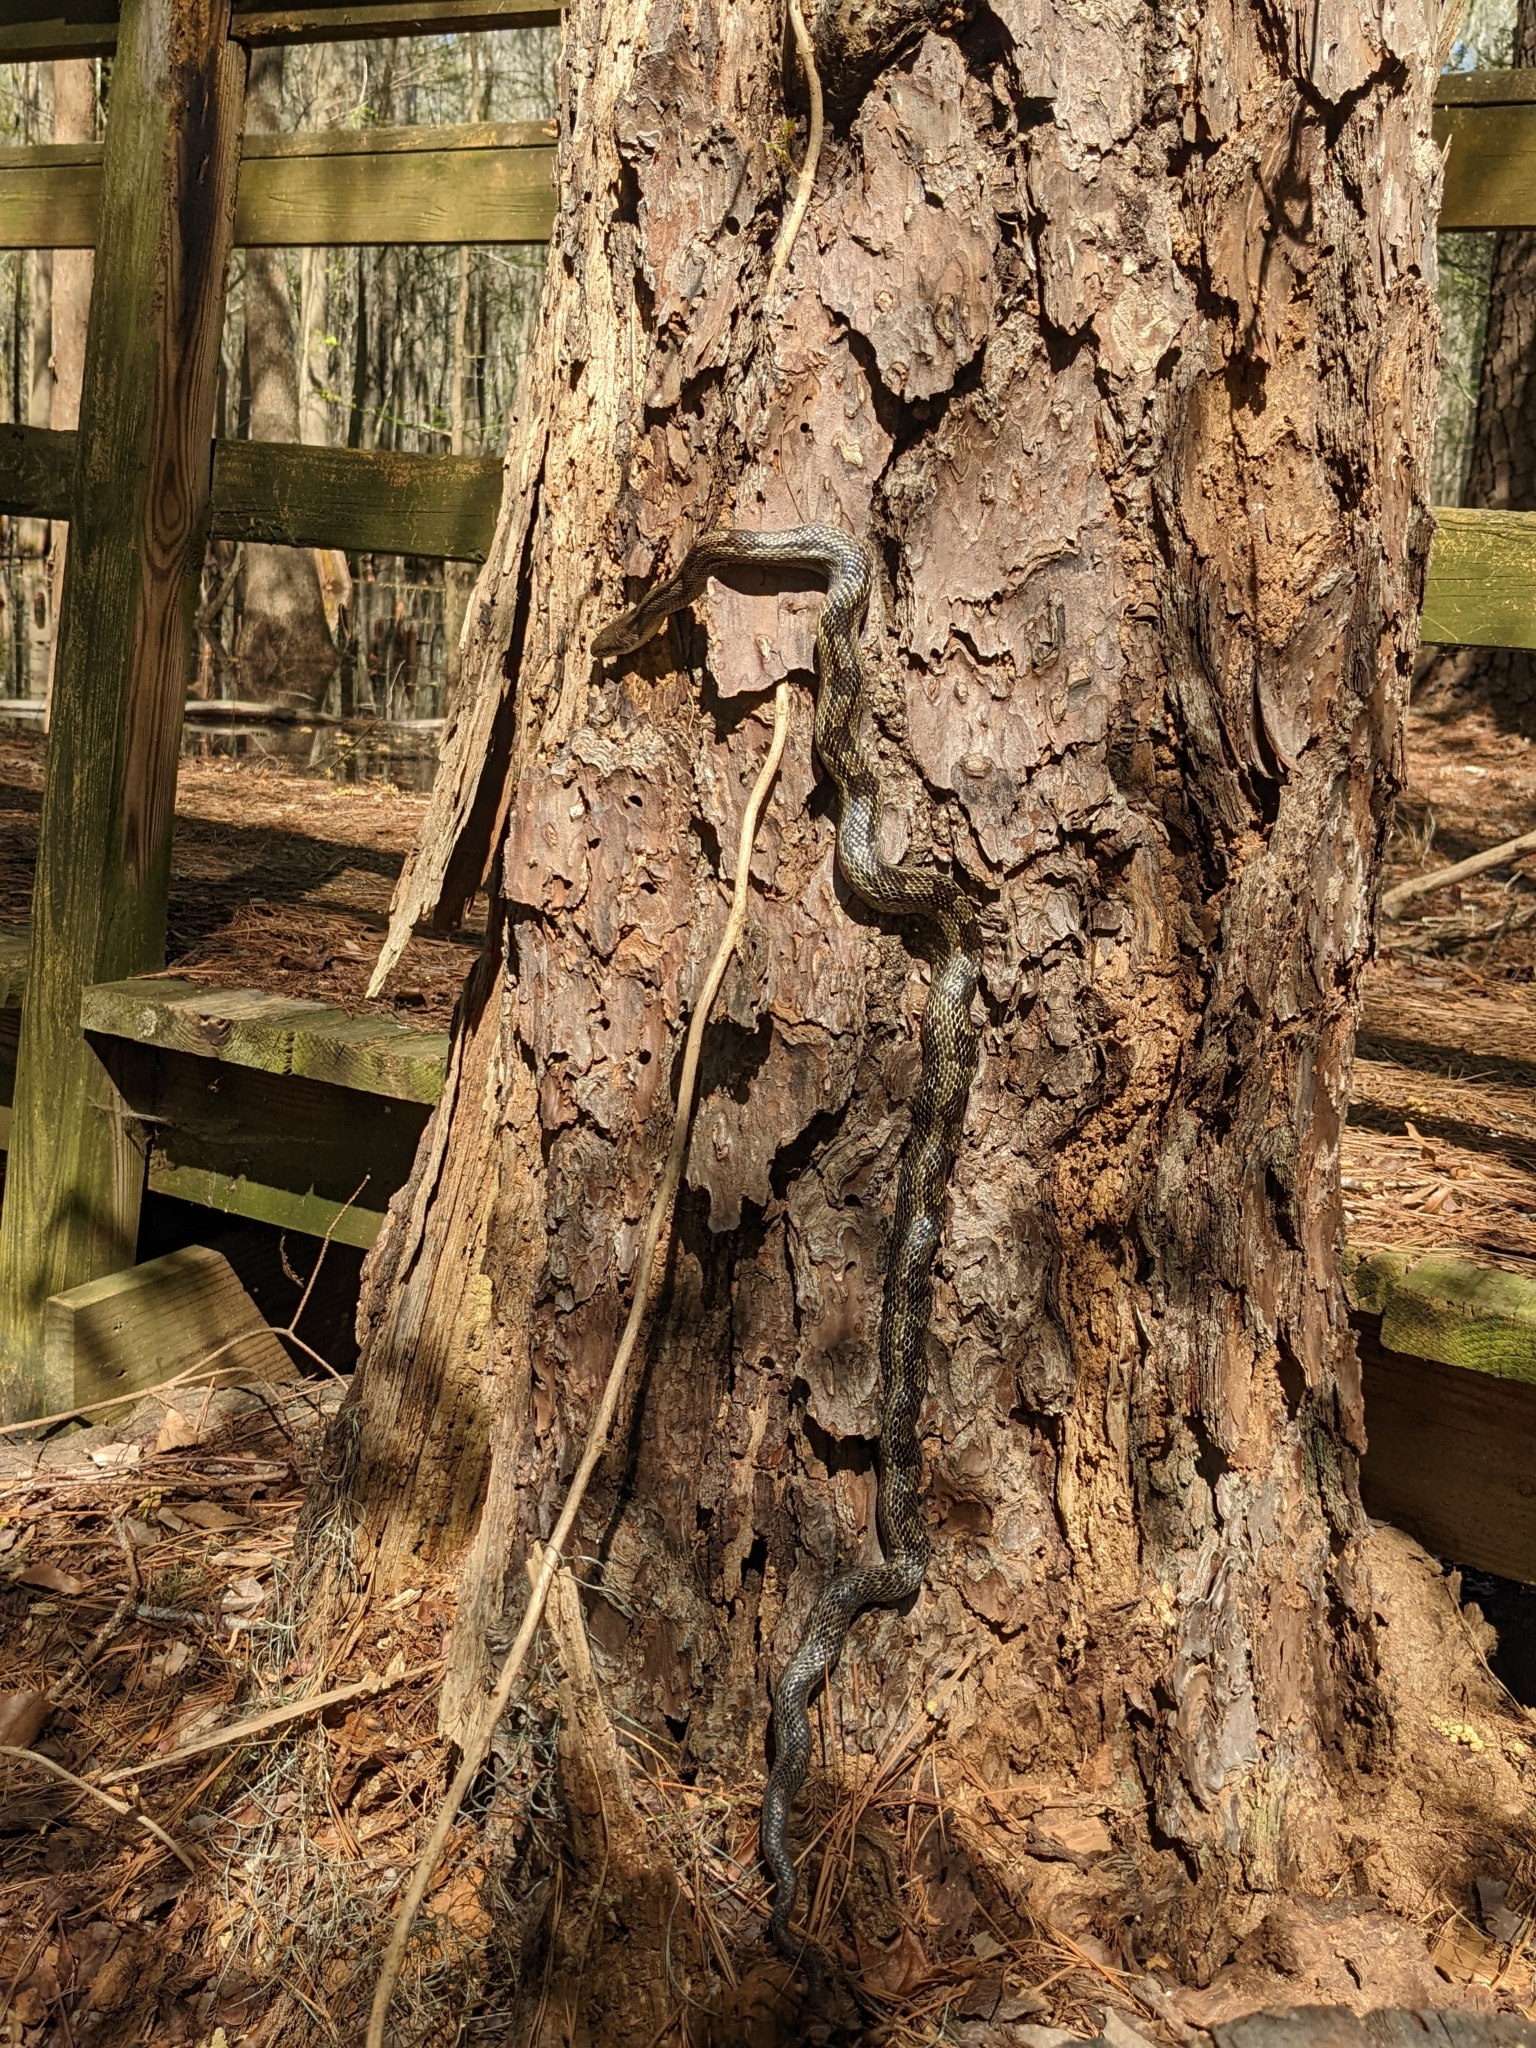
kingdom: Animalia
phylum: Chordata
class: Squamata
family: Colubridae
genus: Pantherophis
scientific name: Pantherophis alleghaniensis
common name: Eastern rat snake
